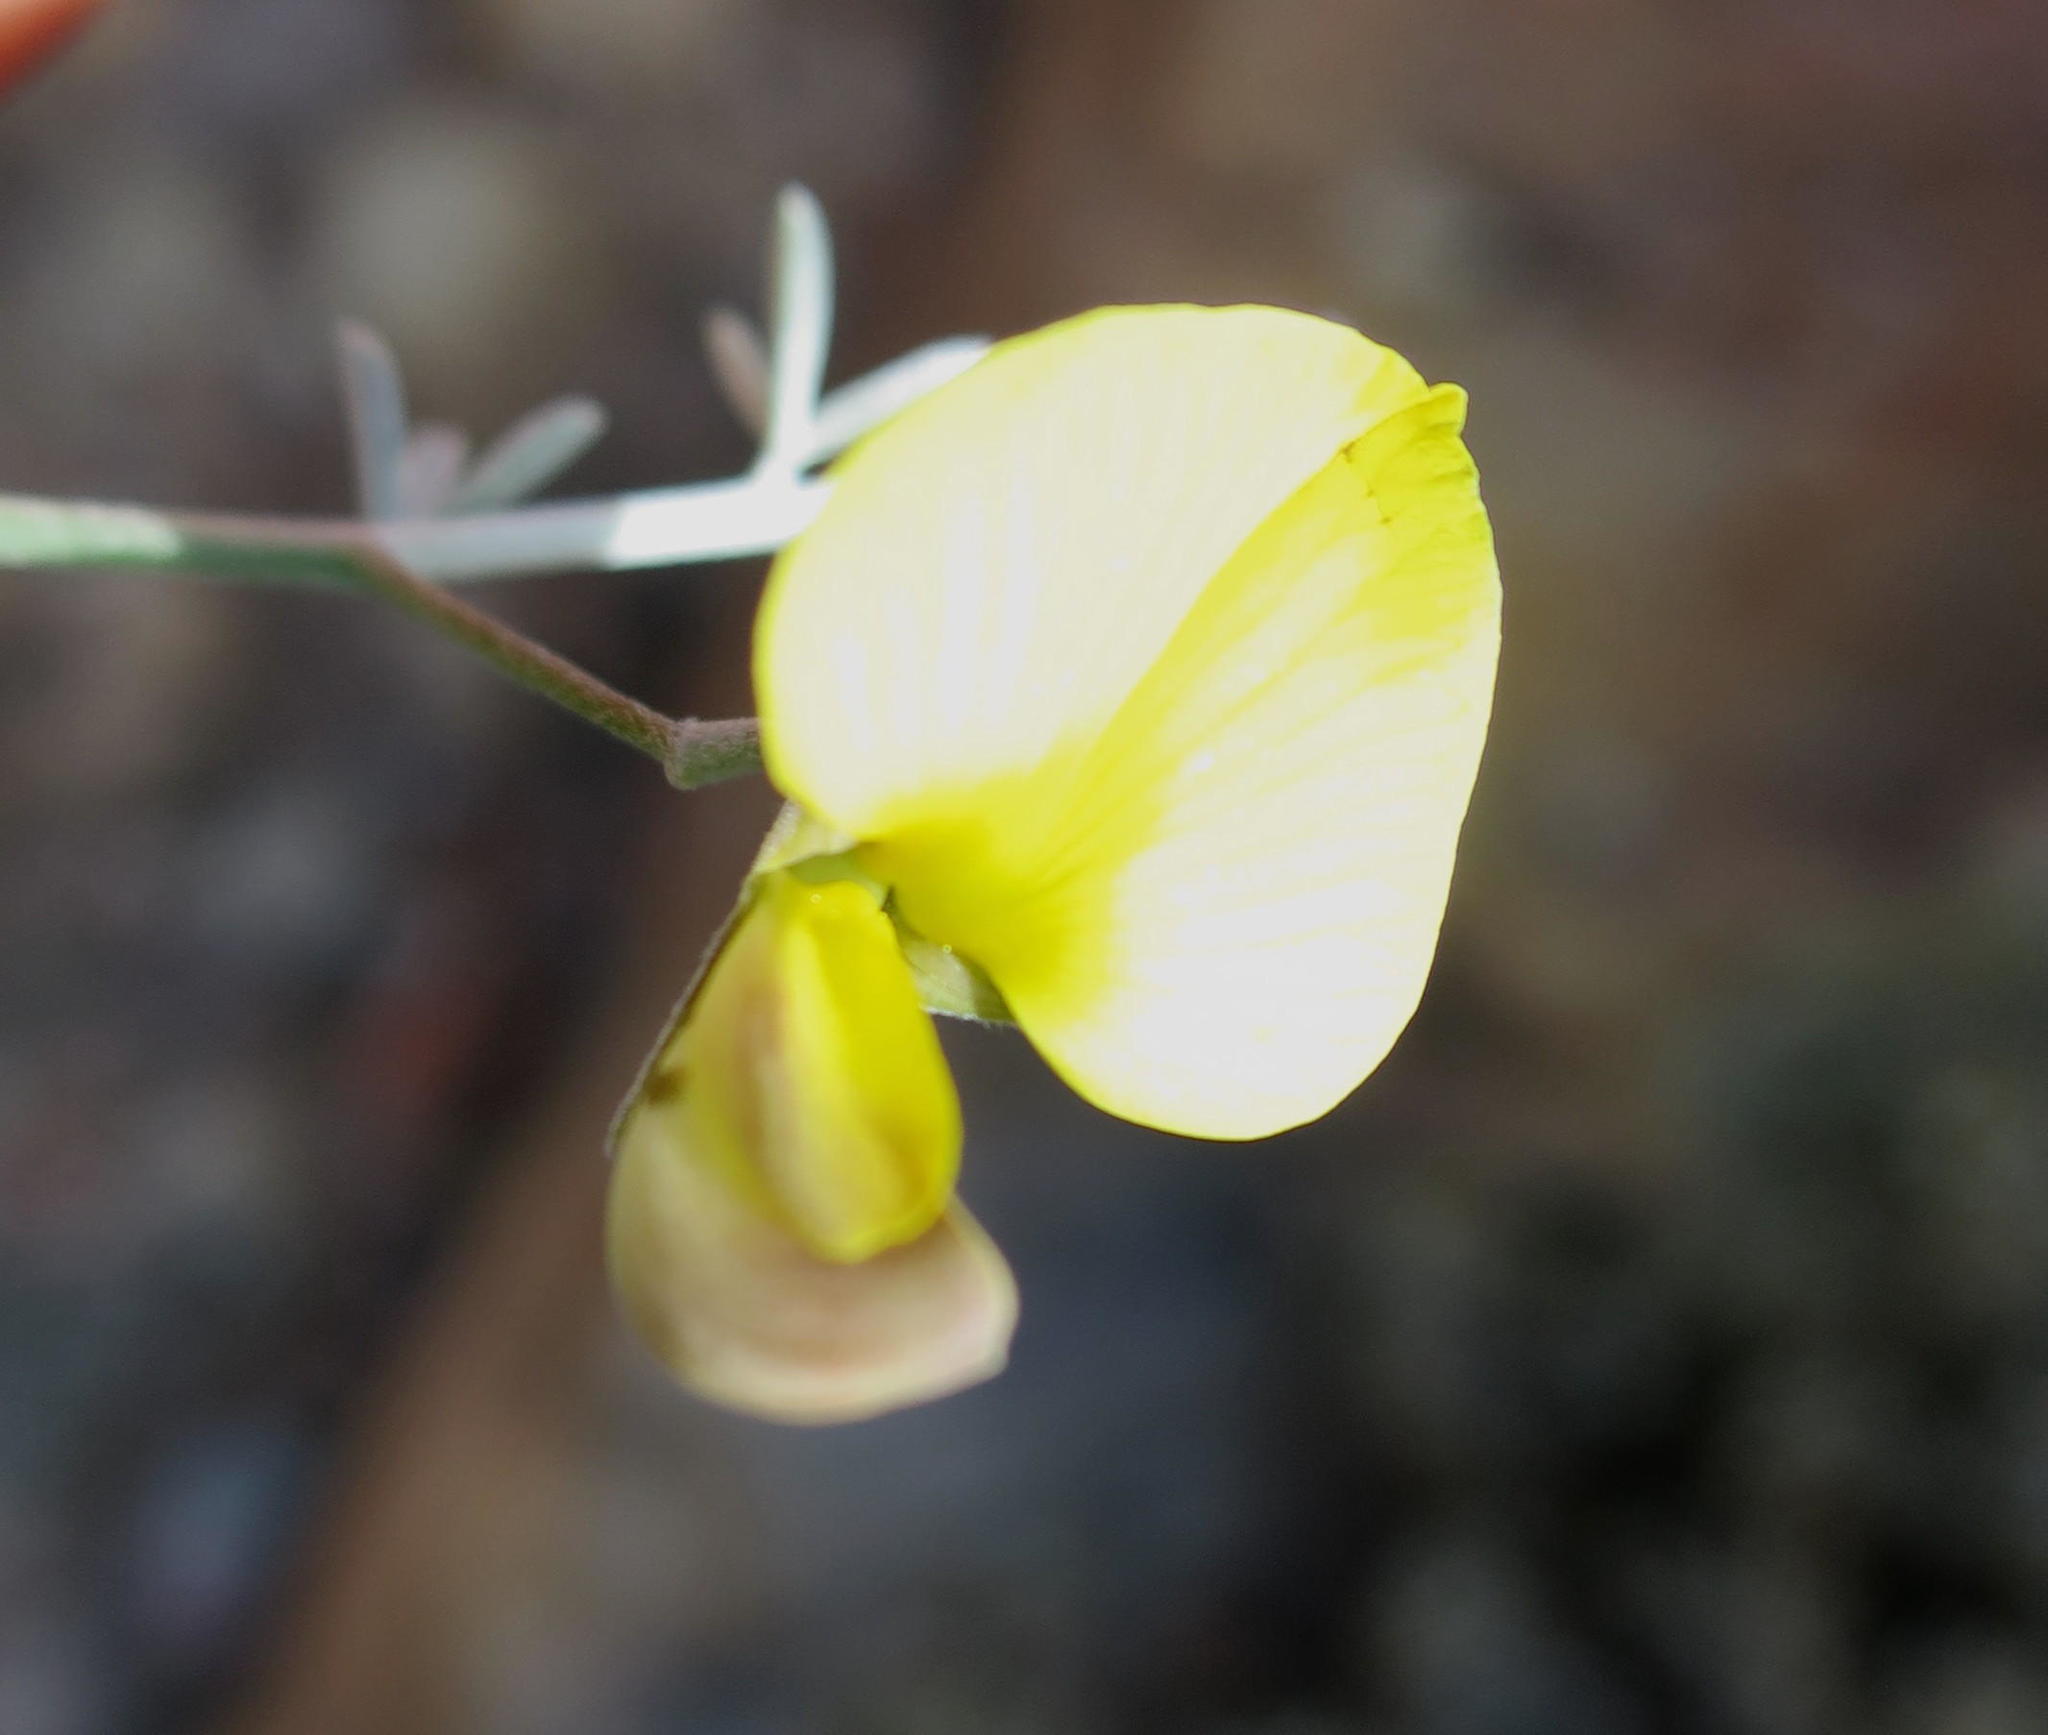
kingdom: Plantae
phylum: Tracheophyta
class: Magnoliopsida
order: Fabales
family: Fabaceae
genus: Lotononis
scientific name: Lotononis dahlgrenii
